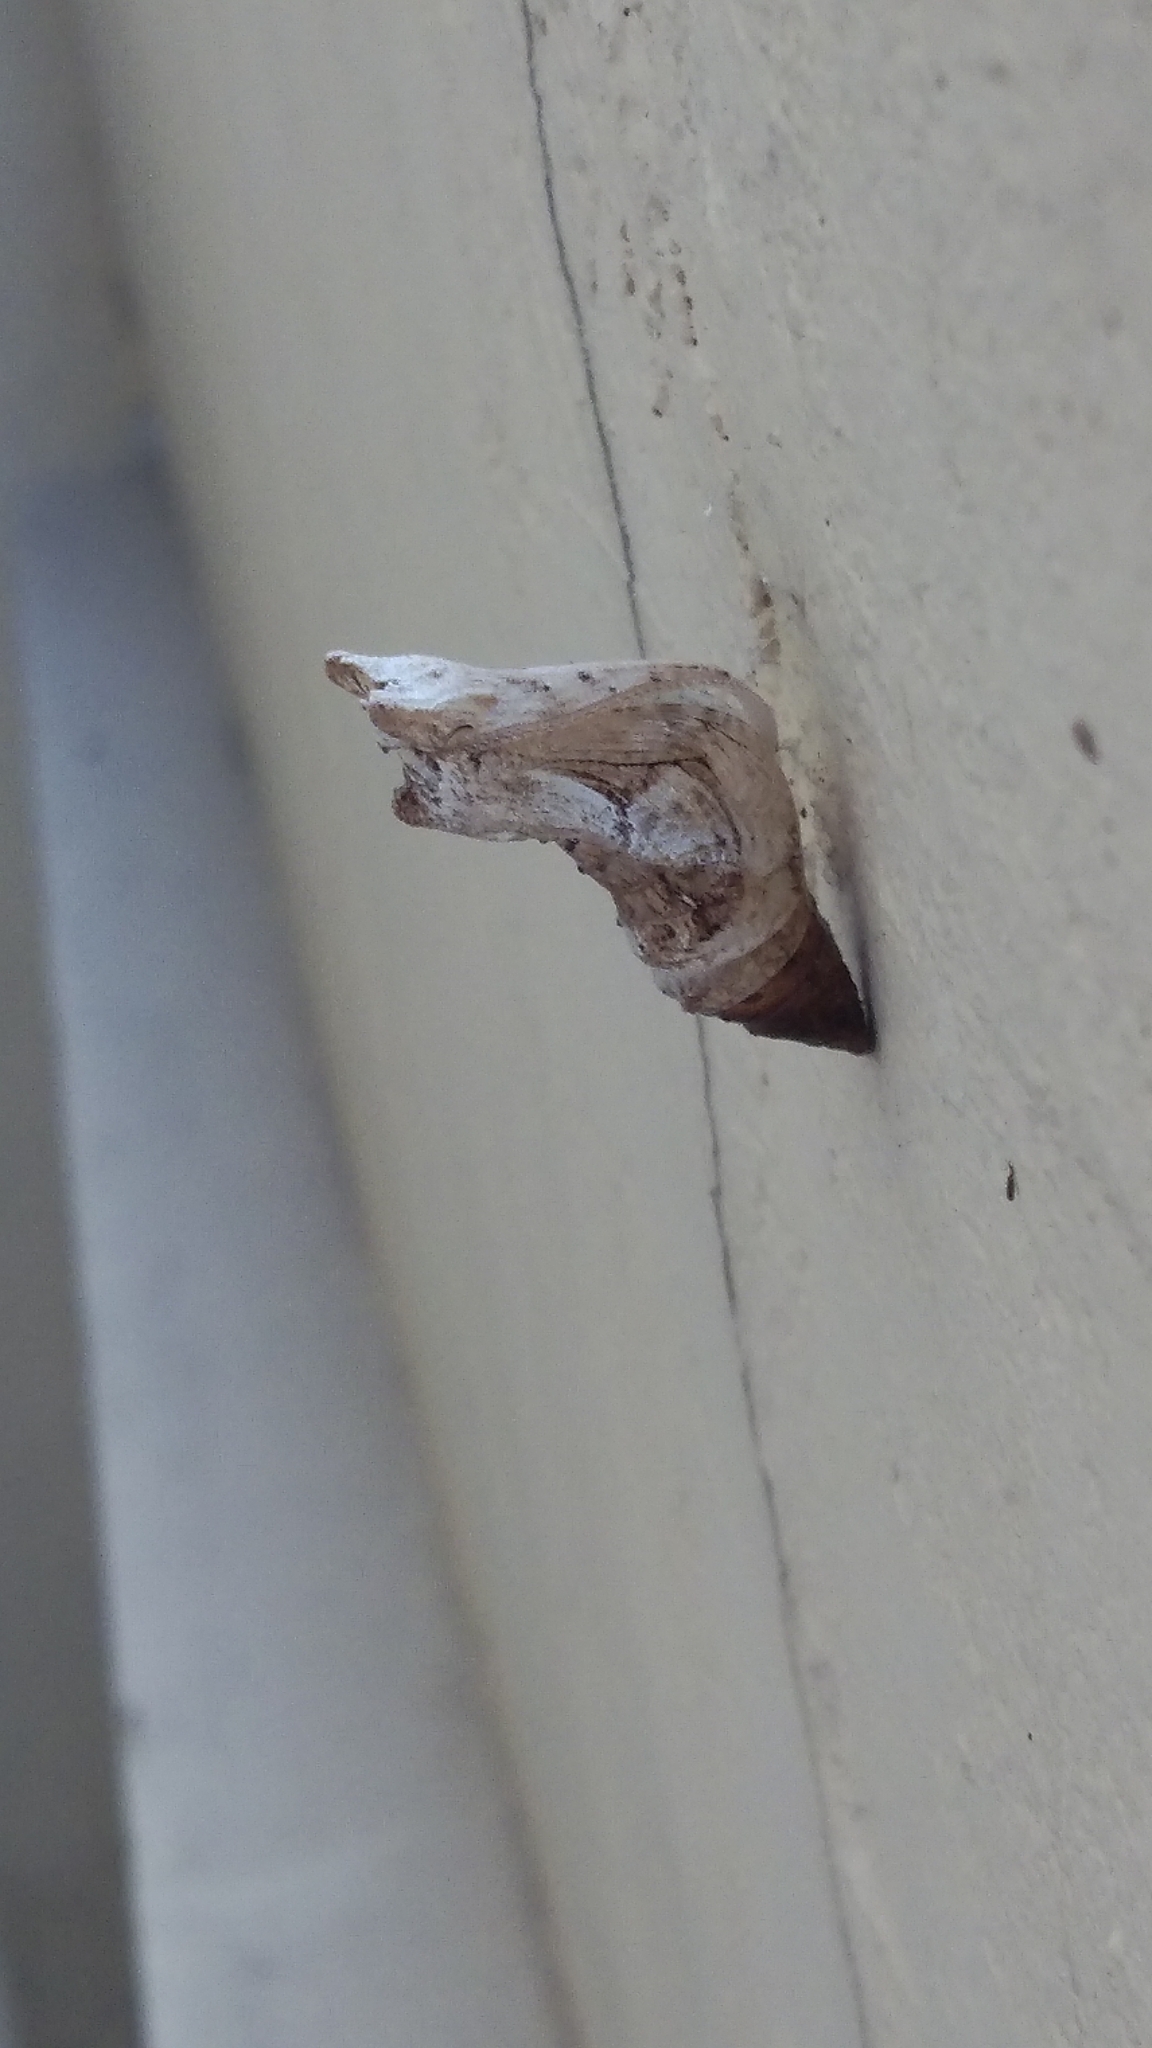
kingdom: Animalia
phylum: Arthropoda
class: Insecta
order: Lepidoptera
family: Papilionidae
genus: Papilio
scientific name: Papilio demoleus
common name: Lime butterfly
